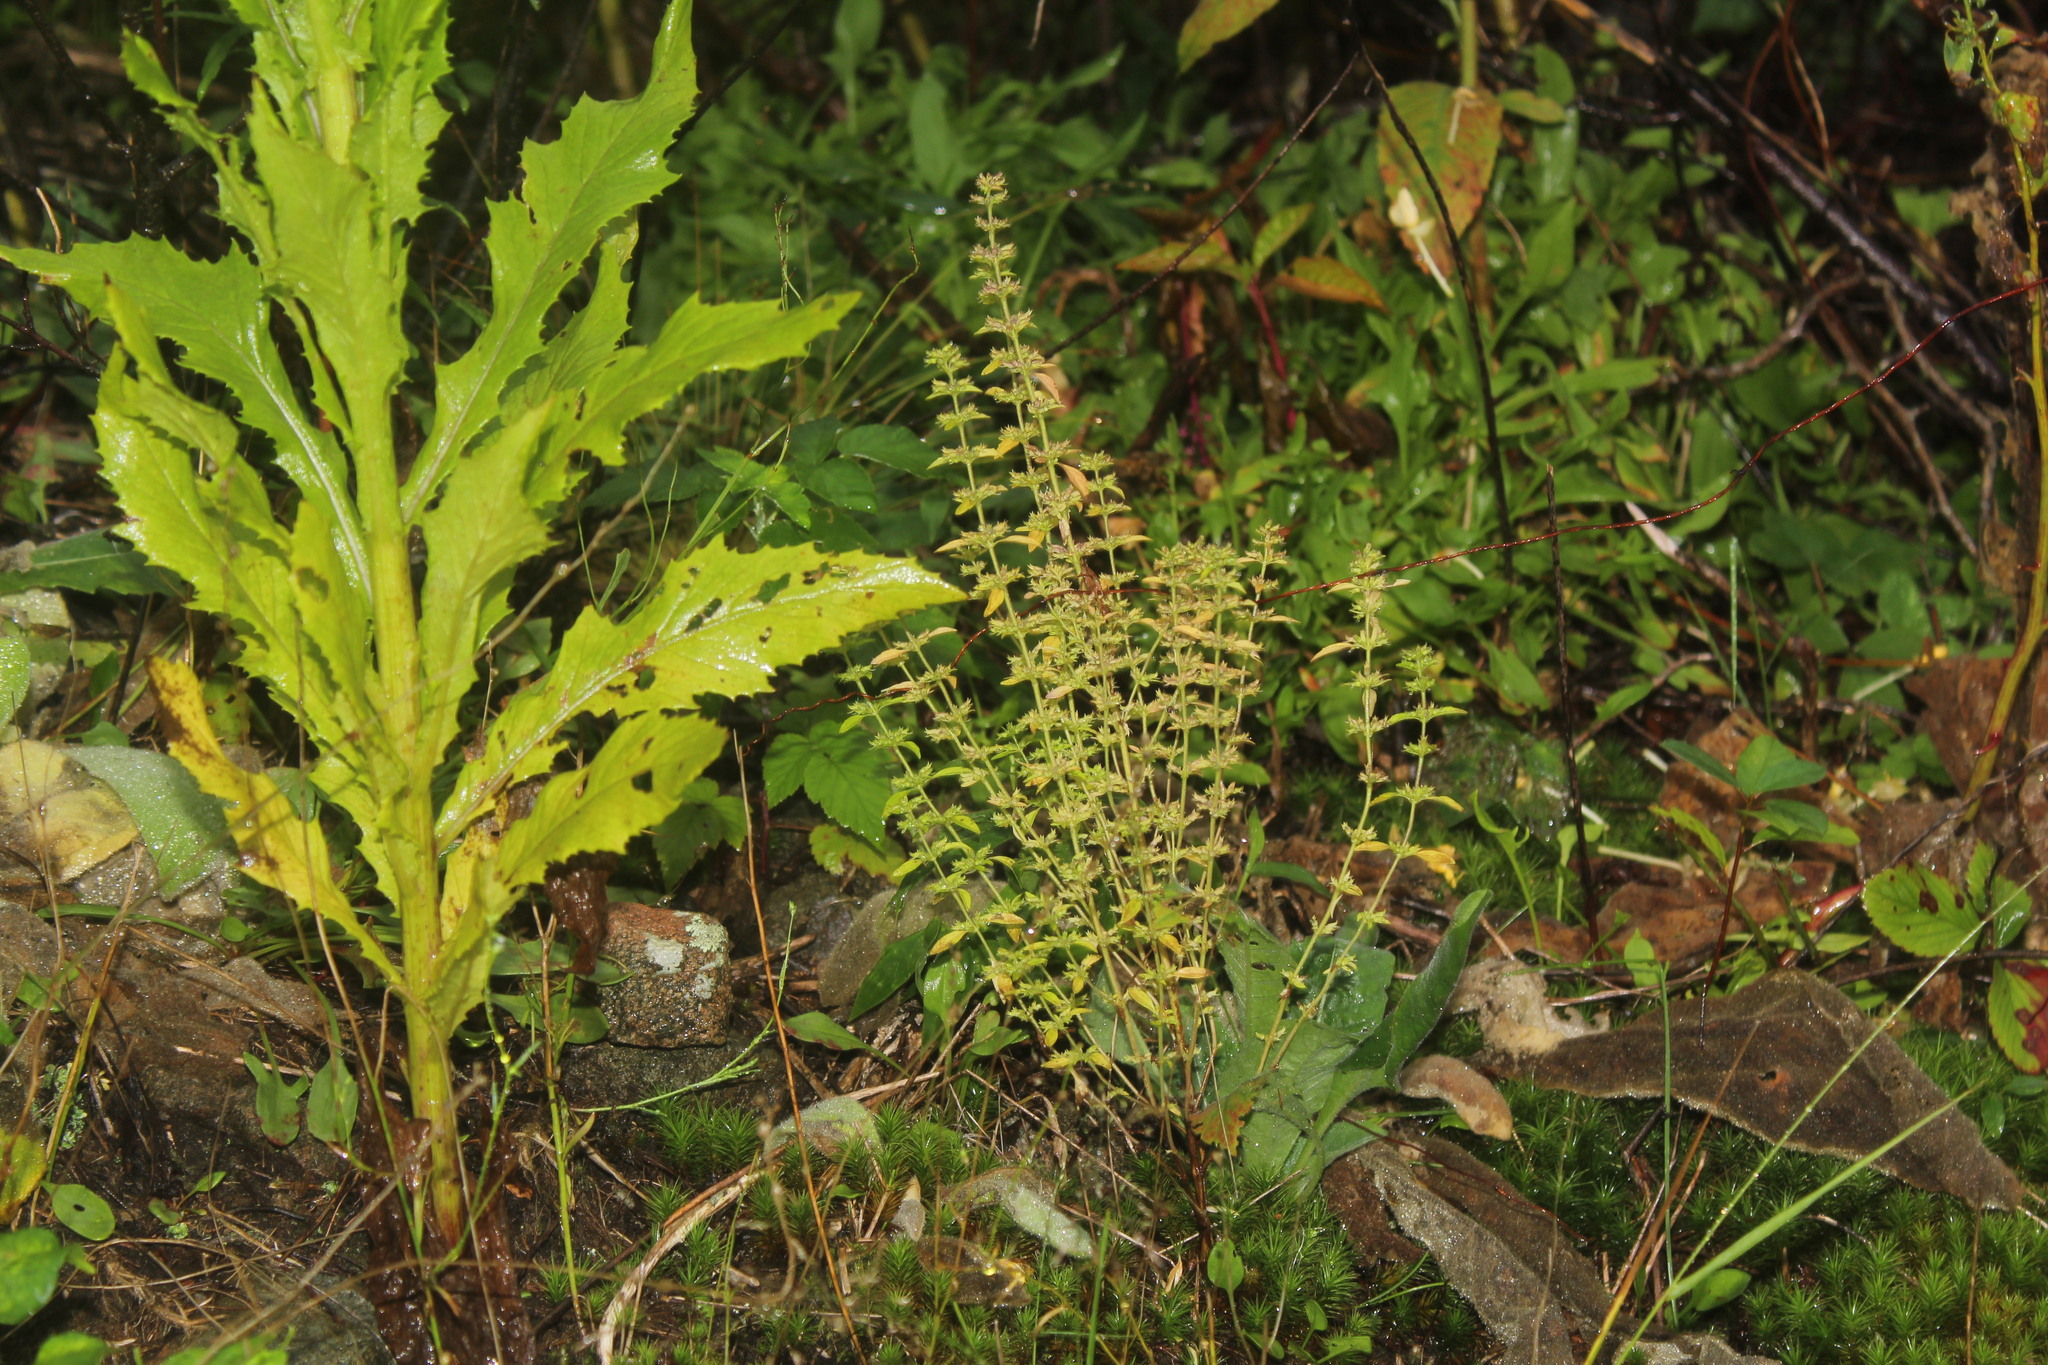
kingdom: Plantae
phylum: Tracheophyta
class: Magnoliopsida
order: Lamiales
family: Lamiaceae
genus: Hedeoma
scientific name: Hedeoma pulegioides
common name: American false pennyroyal
